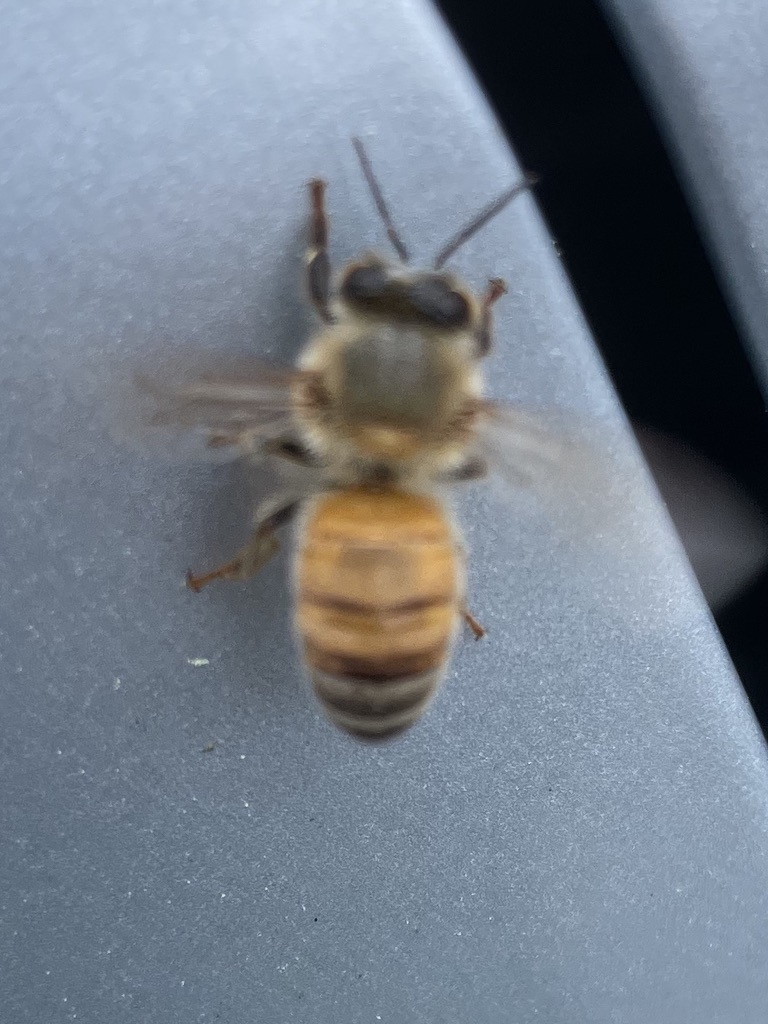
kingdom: Animalia
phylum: Arthropoda
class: Insecta
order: Hymenoptera
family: Apidae
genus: Apis
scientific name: Apis mellifera
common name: Honey bee
